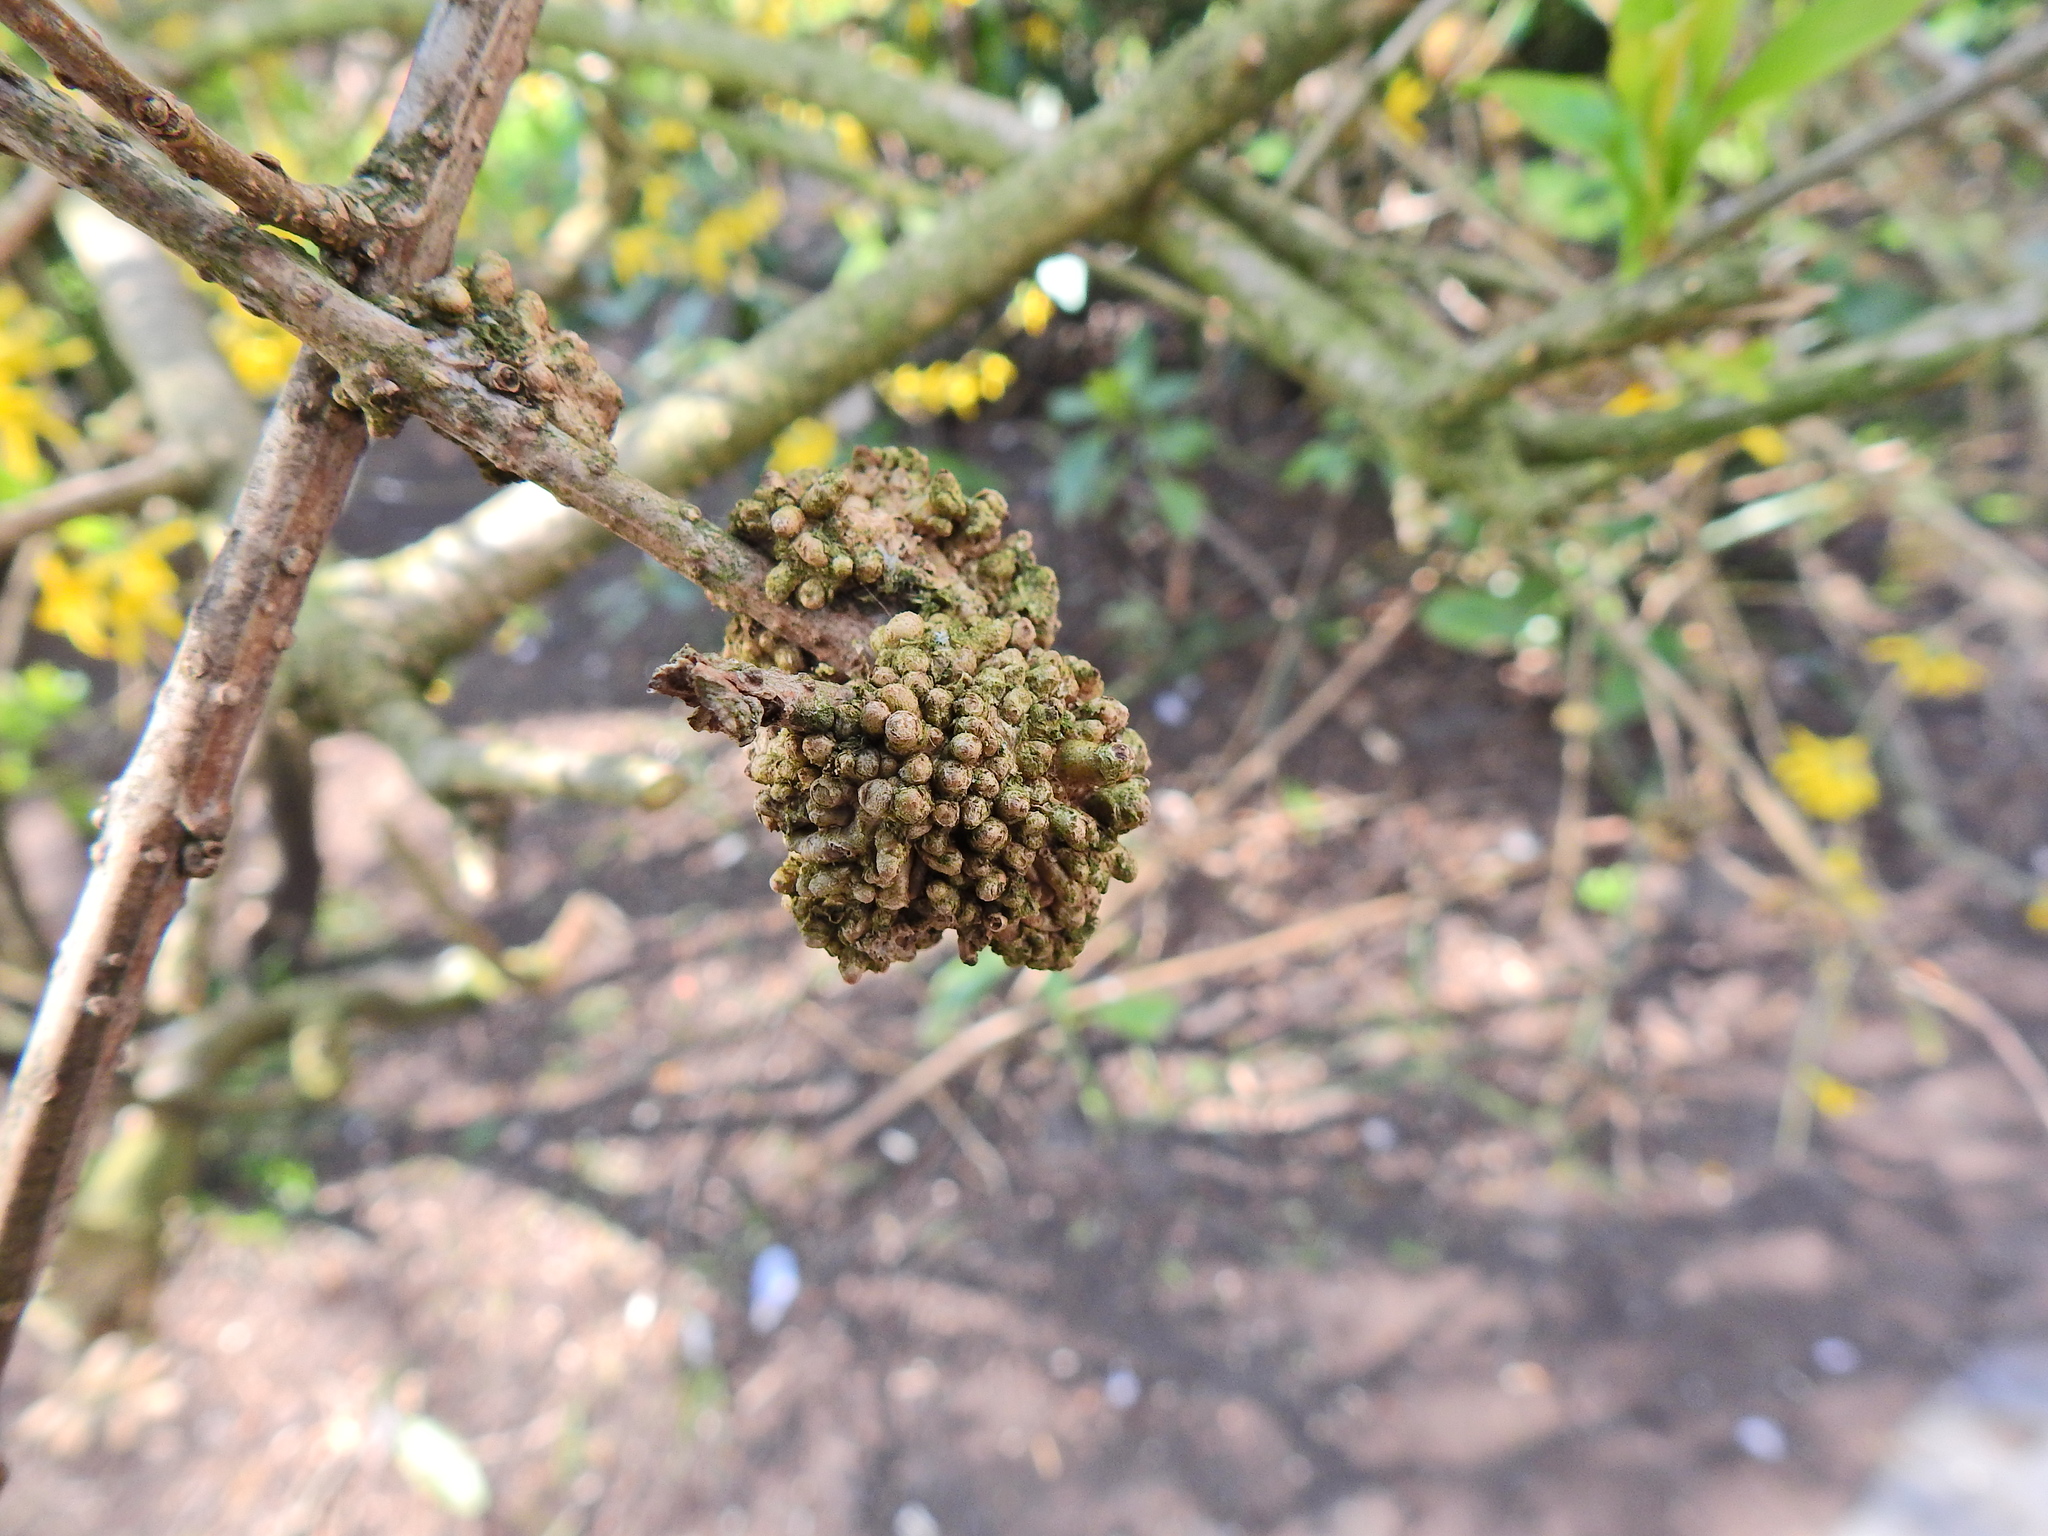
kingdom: Bacteria
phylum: Proteobacteria
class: Gammaproteobacteria
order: Pseudomonadales
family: Pseudomonadaceae
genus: Pseudomonas
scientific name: Pseudomonas
